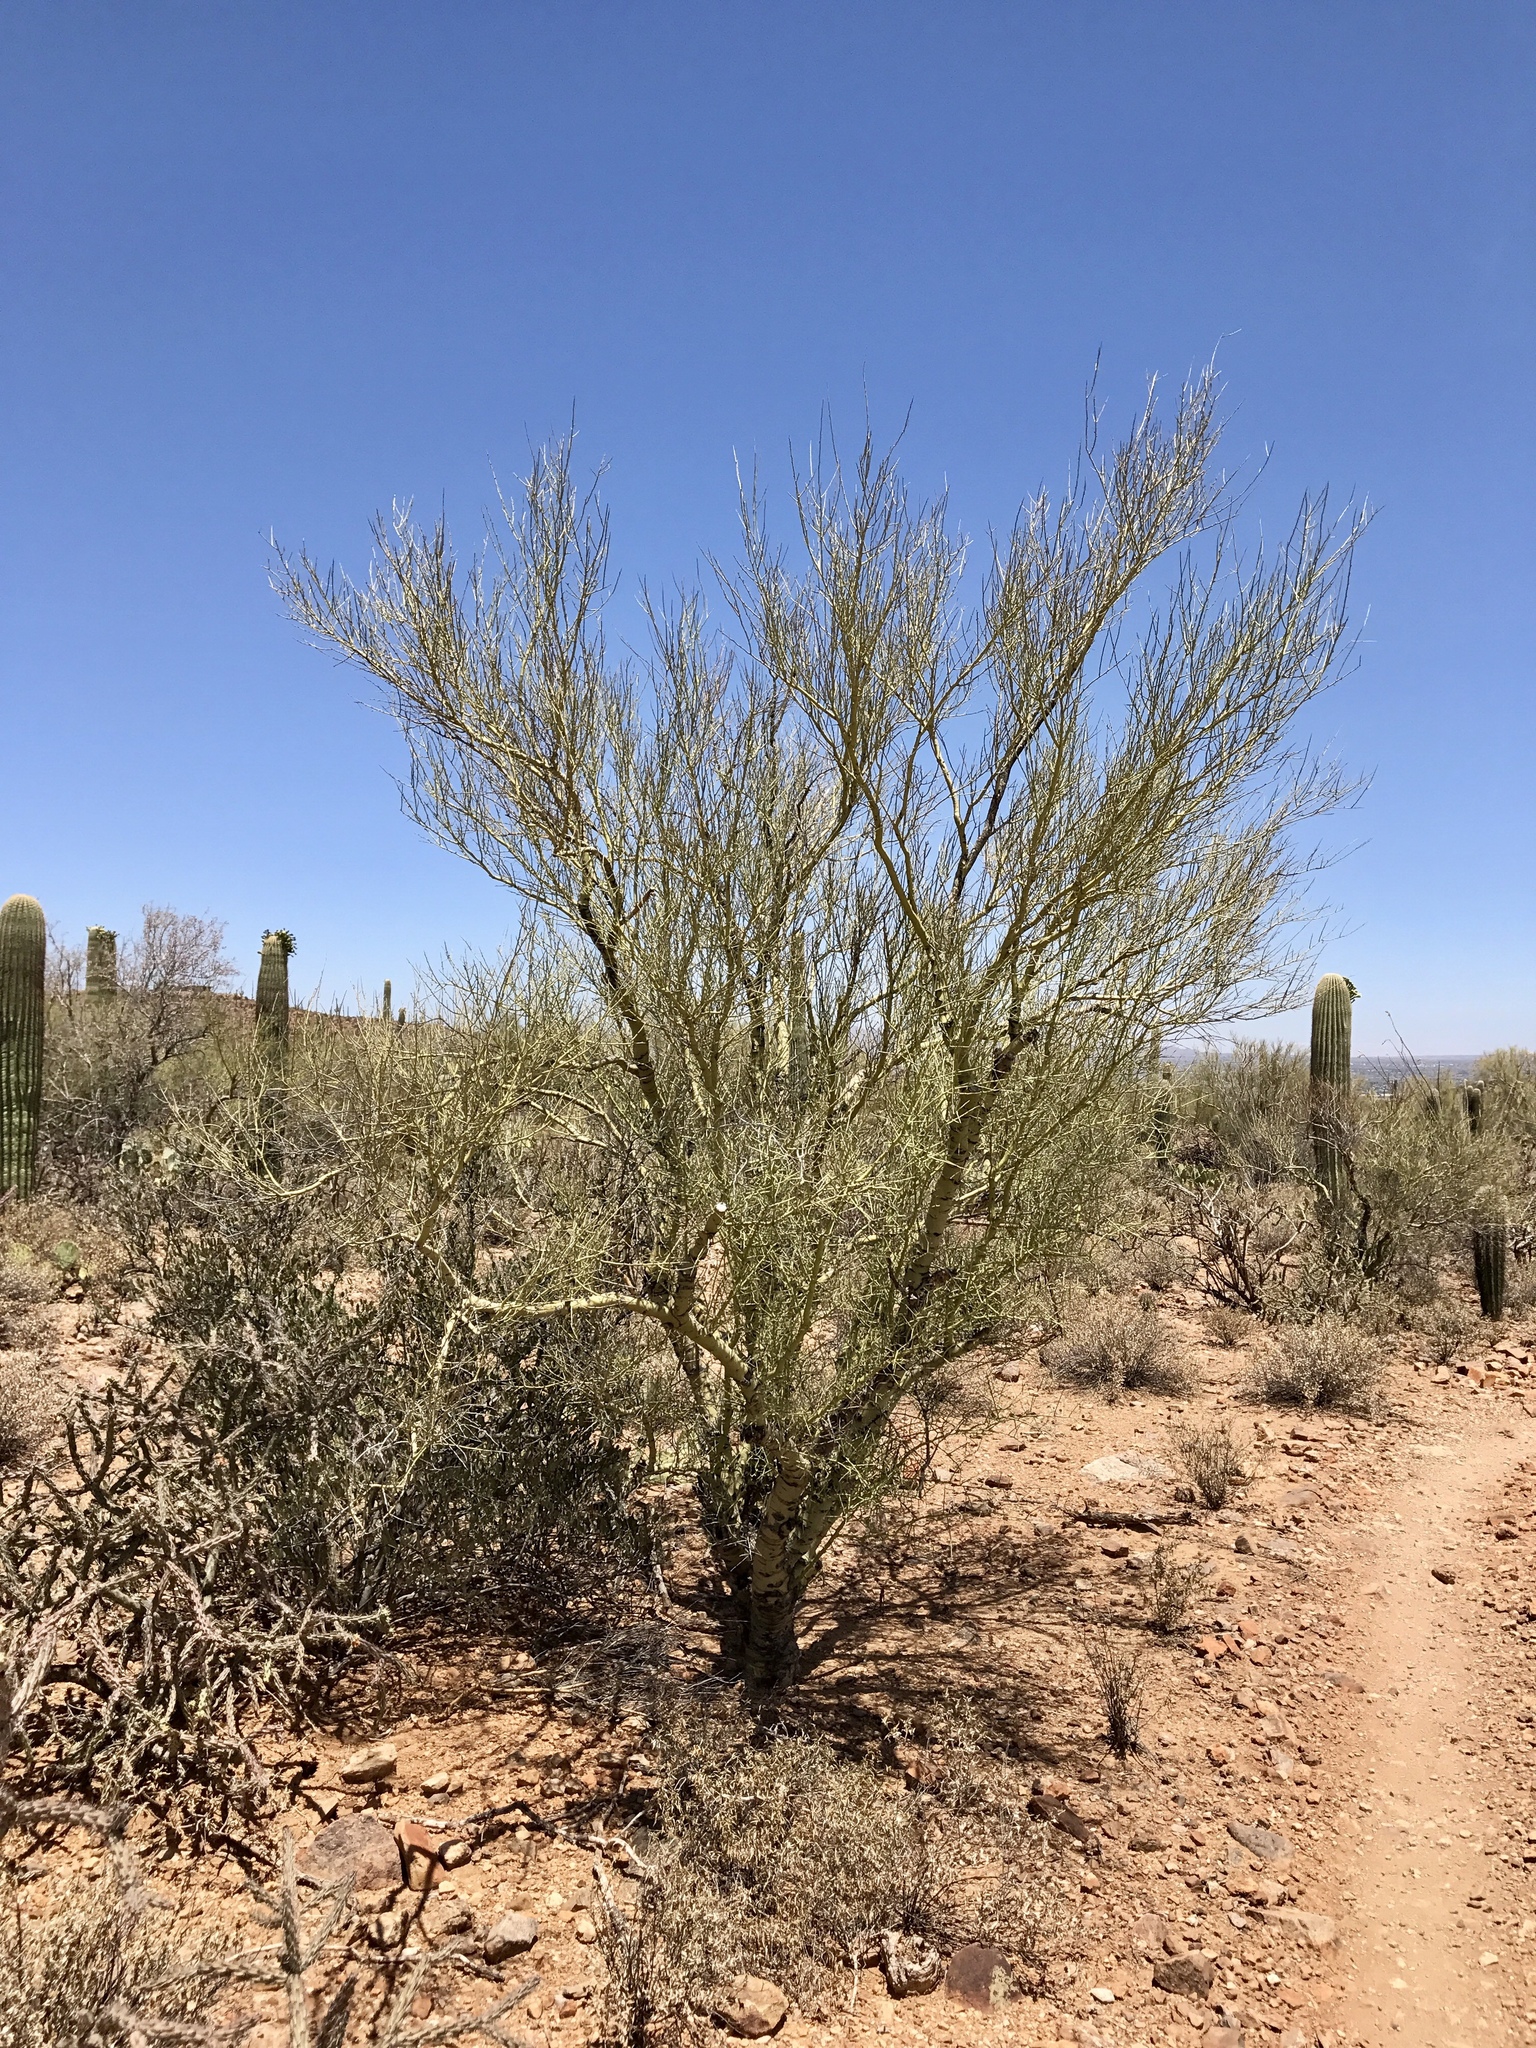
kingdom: Plantae
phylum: Tracheophyta
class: Magnoliopsida
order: Fabales
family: Fabaceae
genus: Parkinsonia
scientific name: Parkinsonia microphylla
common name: Yellow paloverde
